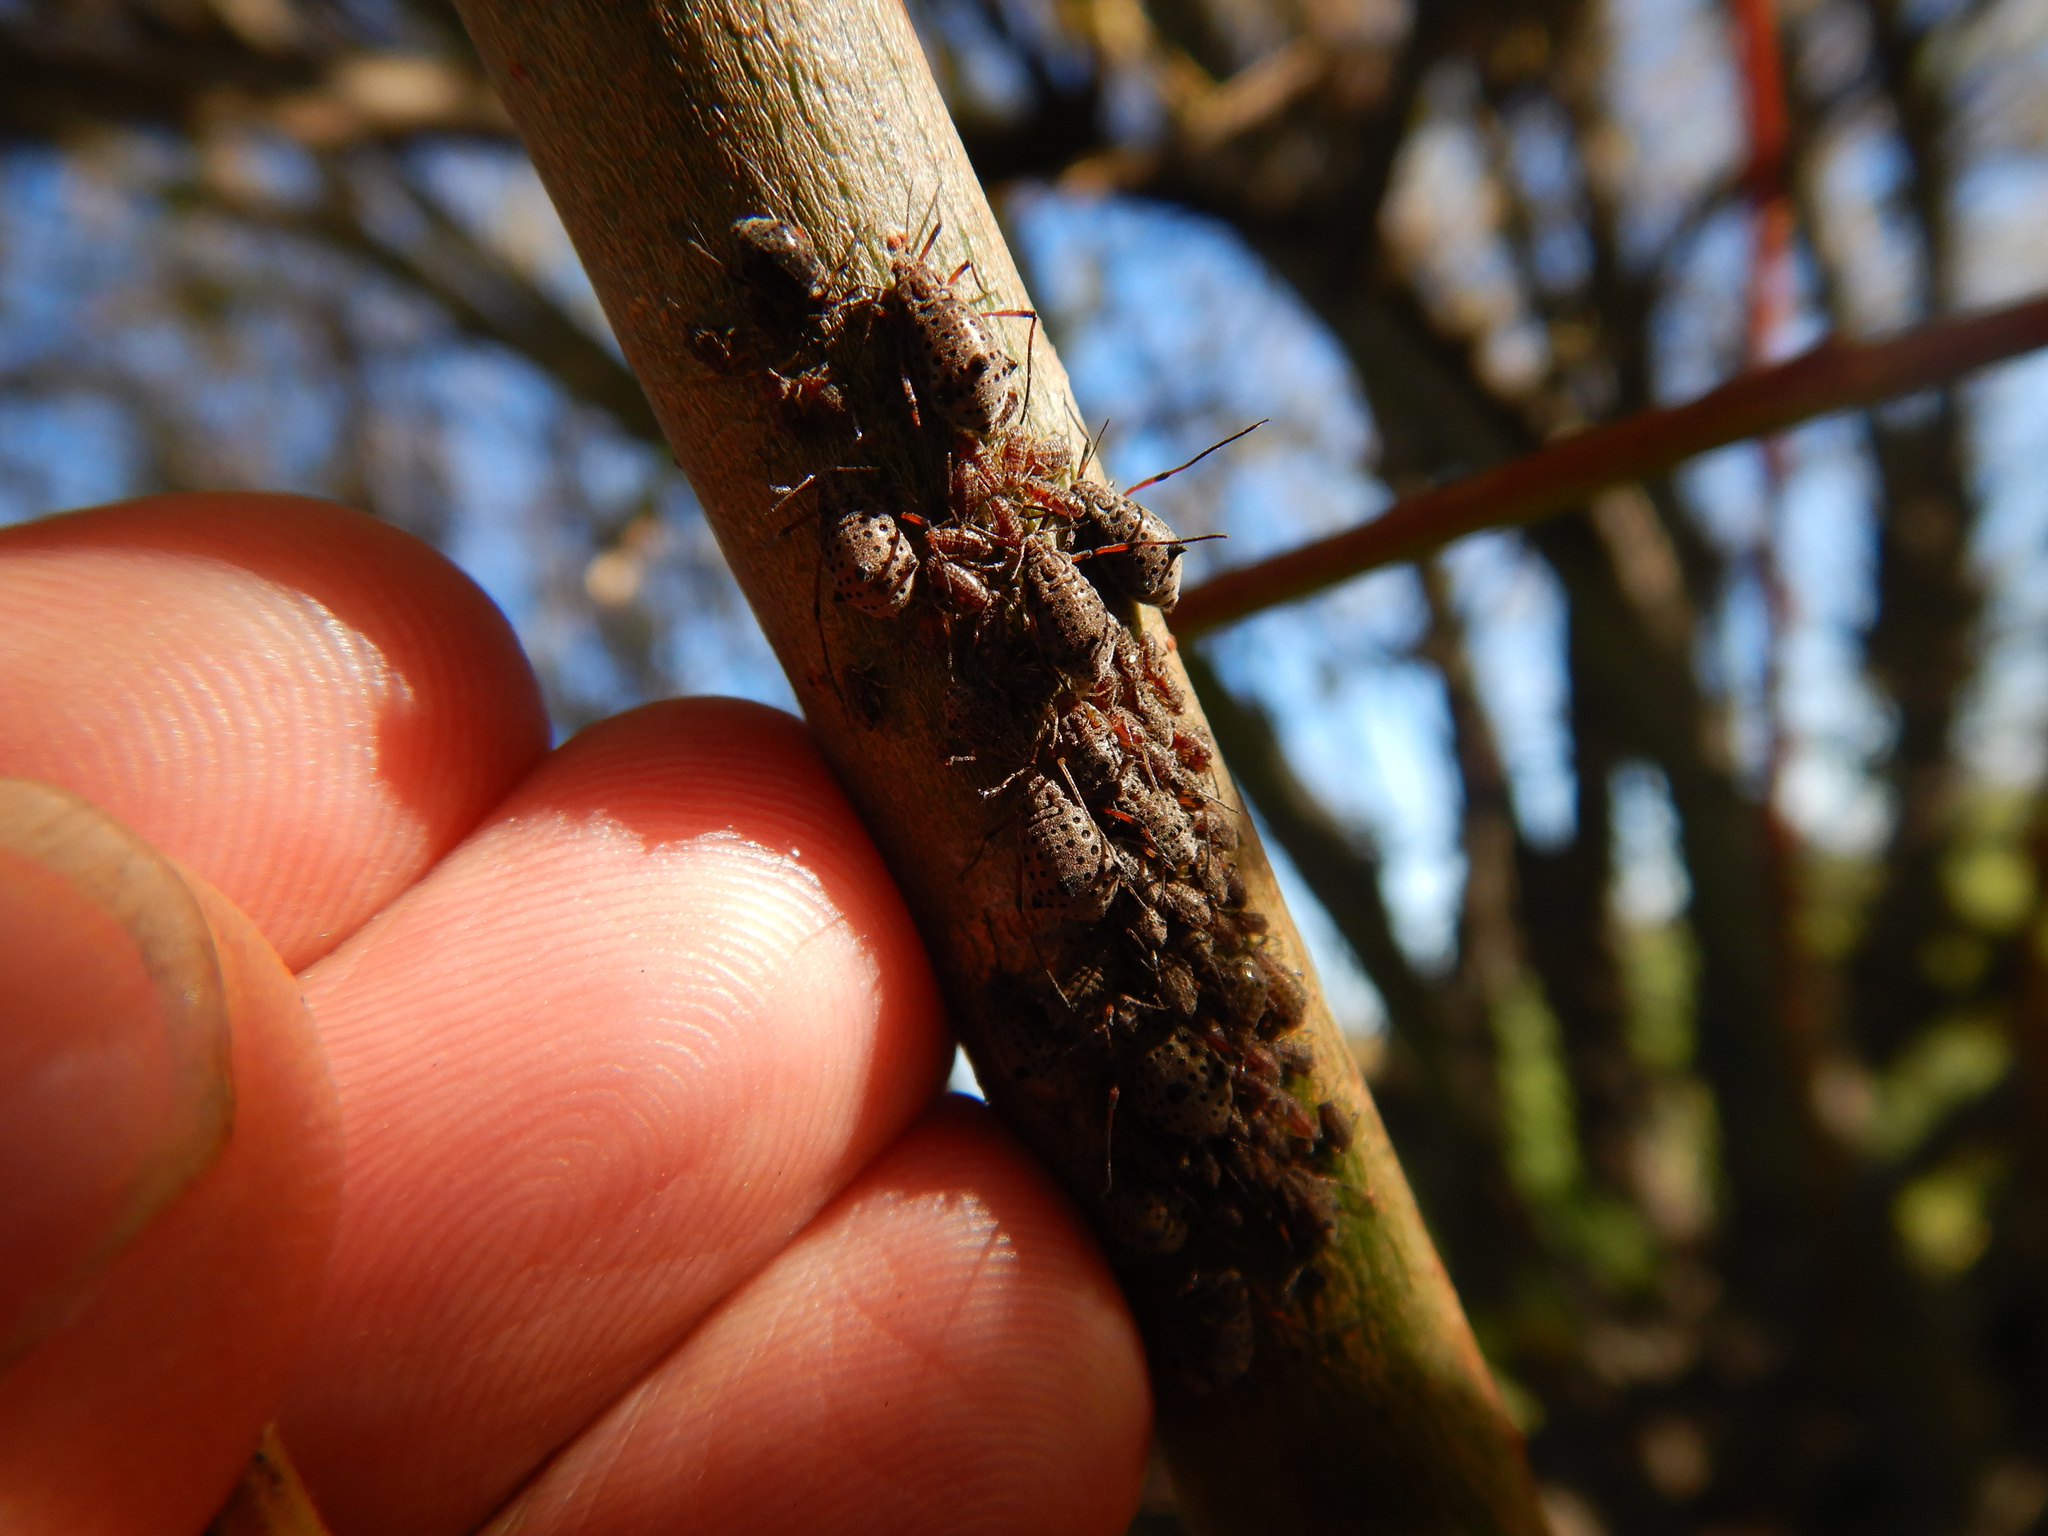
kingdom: Animalia
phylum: Arthropoda
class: Insecta
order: Hemiptera
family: Aphididae
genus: Tuberolachnus
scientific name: Tuberolachnus salignus
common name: Giant willow aphid
